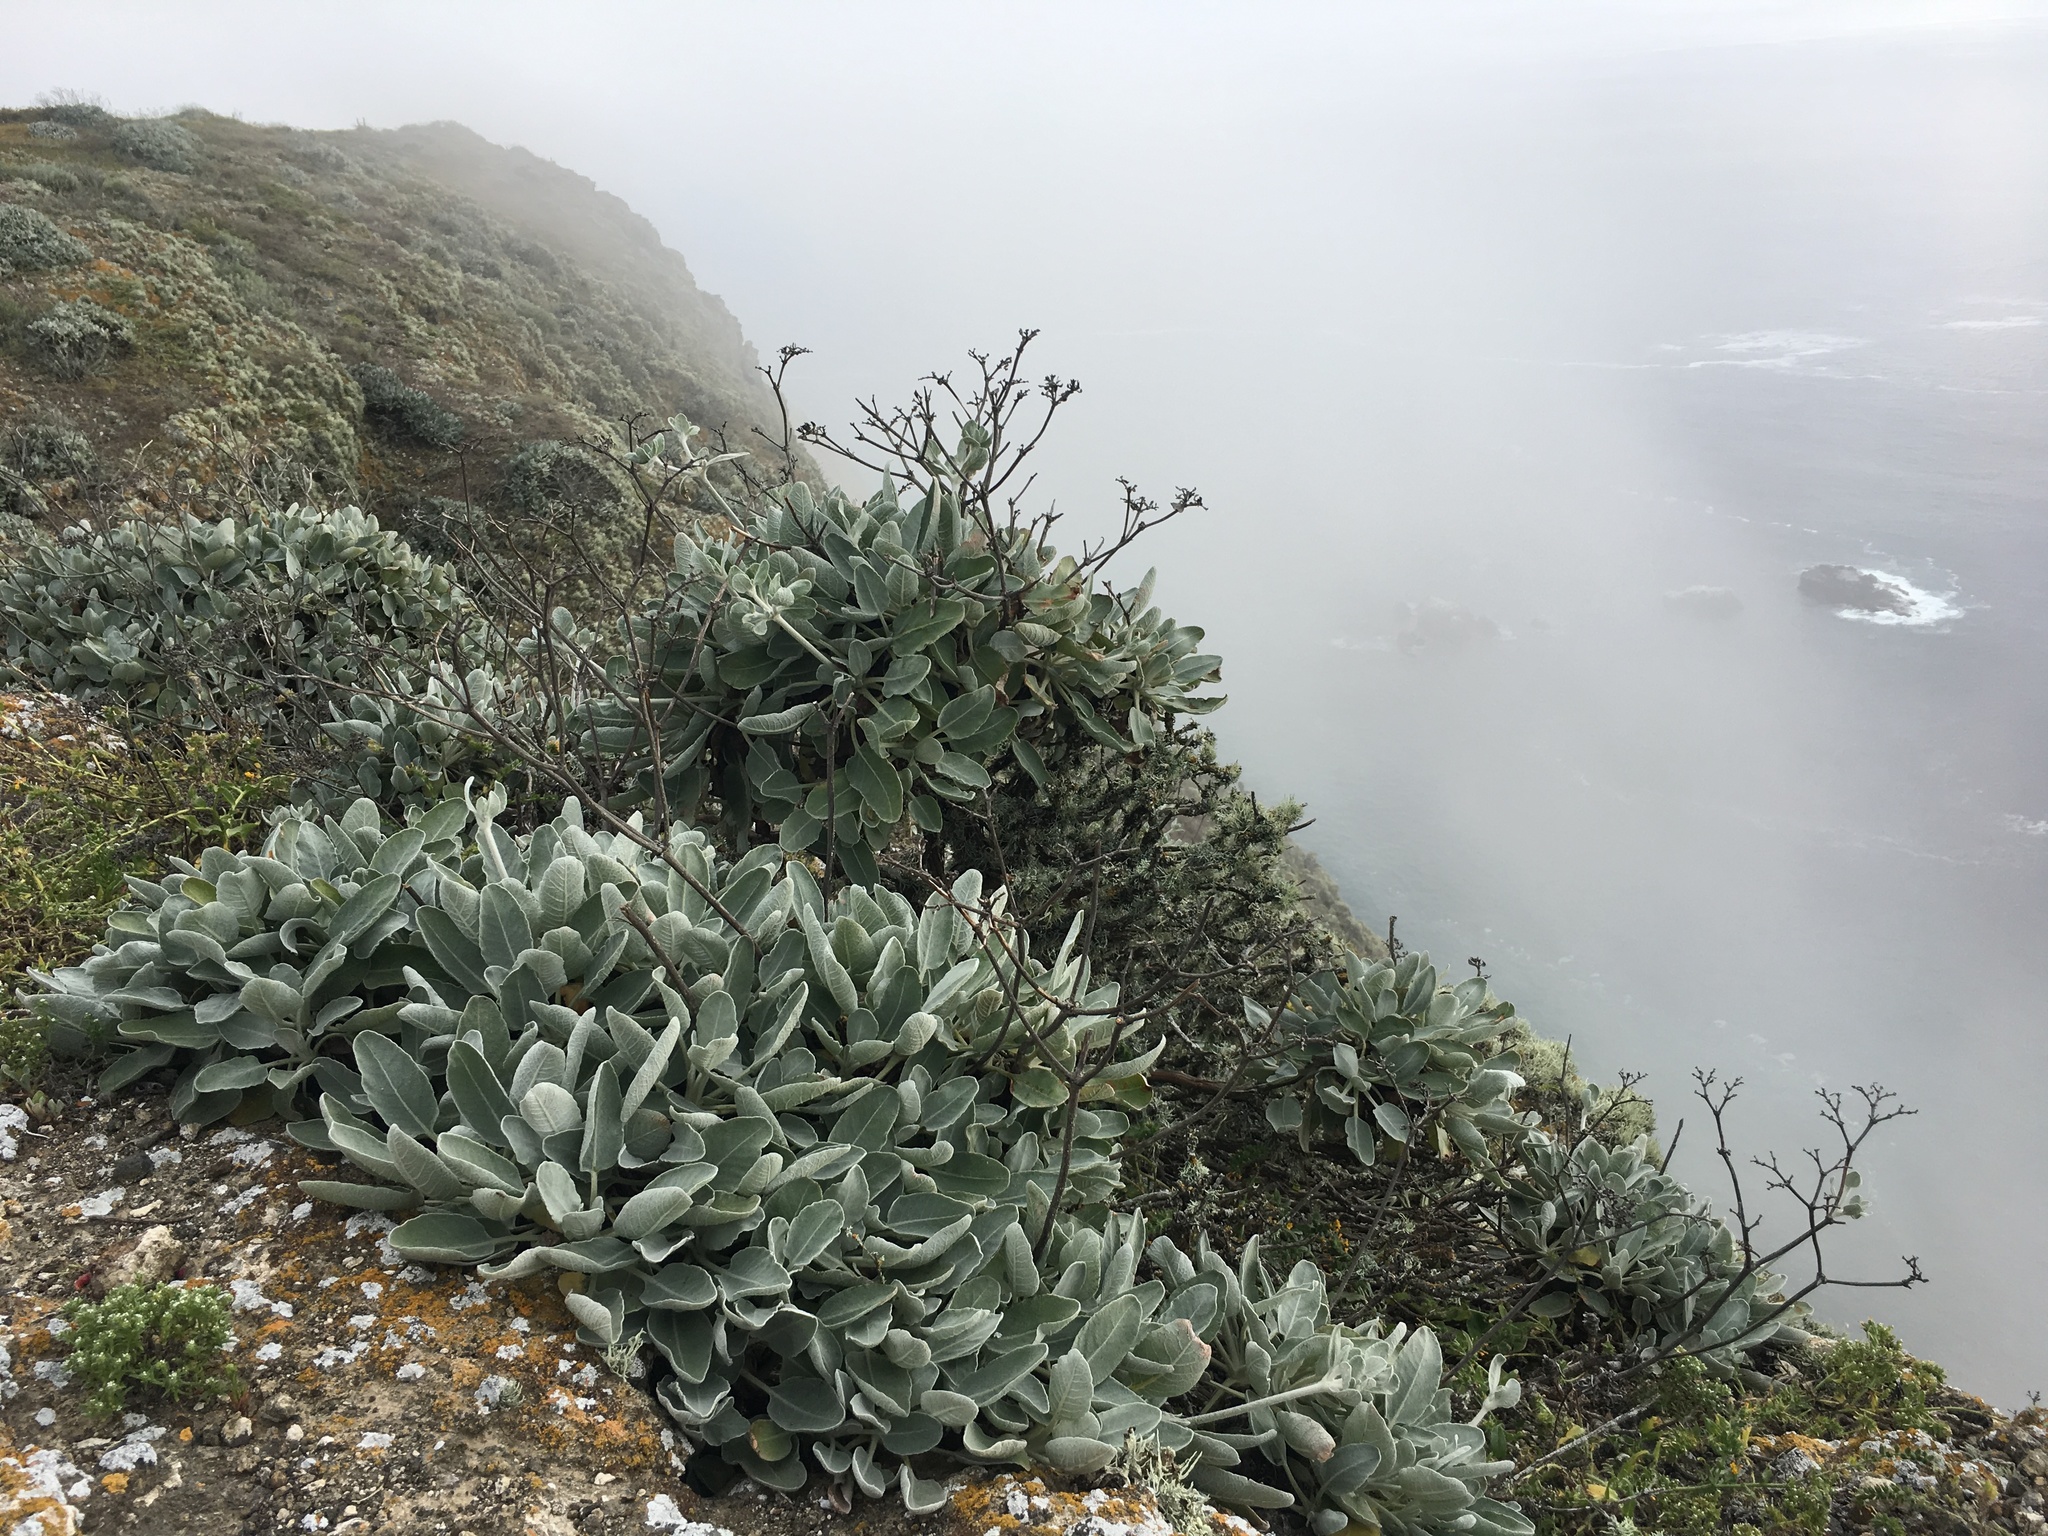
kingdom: Plantae
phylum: Tracheophyta
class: Magnoliopsida
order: Caryophyllales
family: Polygonaceae
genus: Eriogonum
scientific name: Eriogonum giganteum
